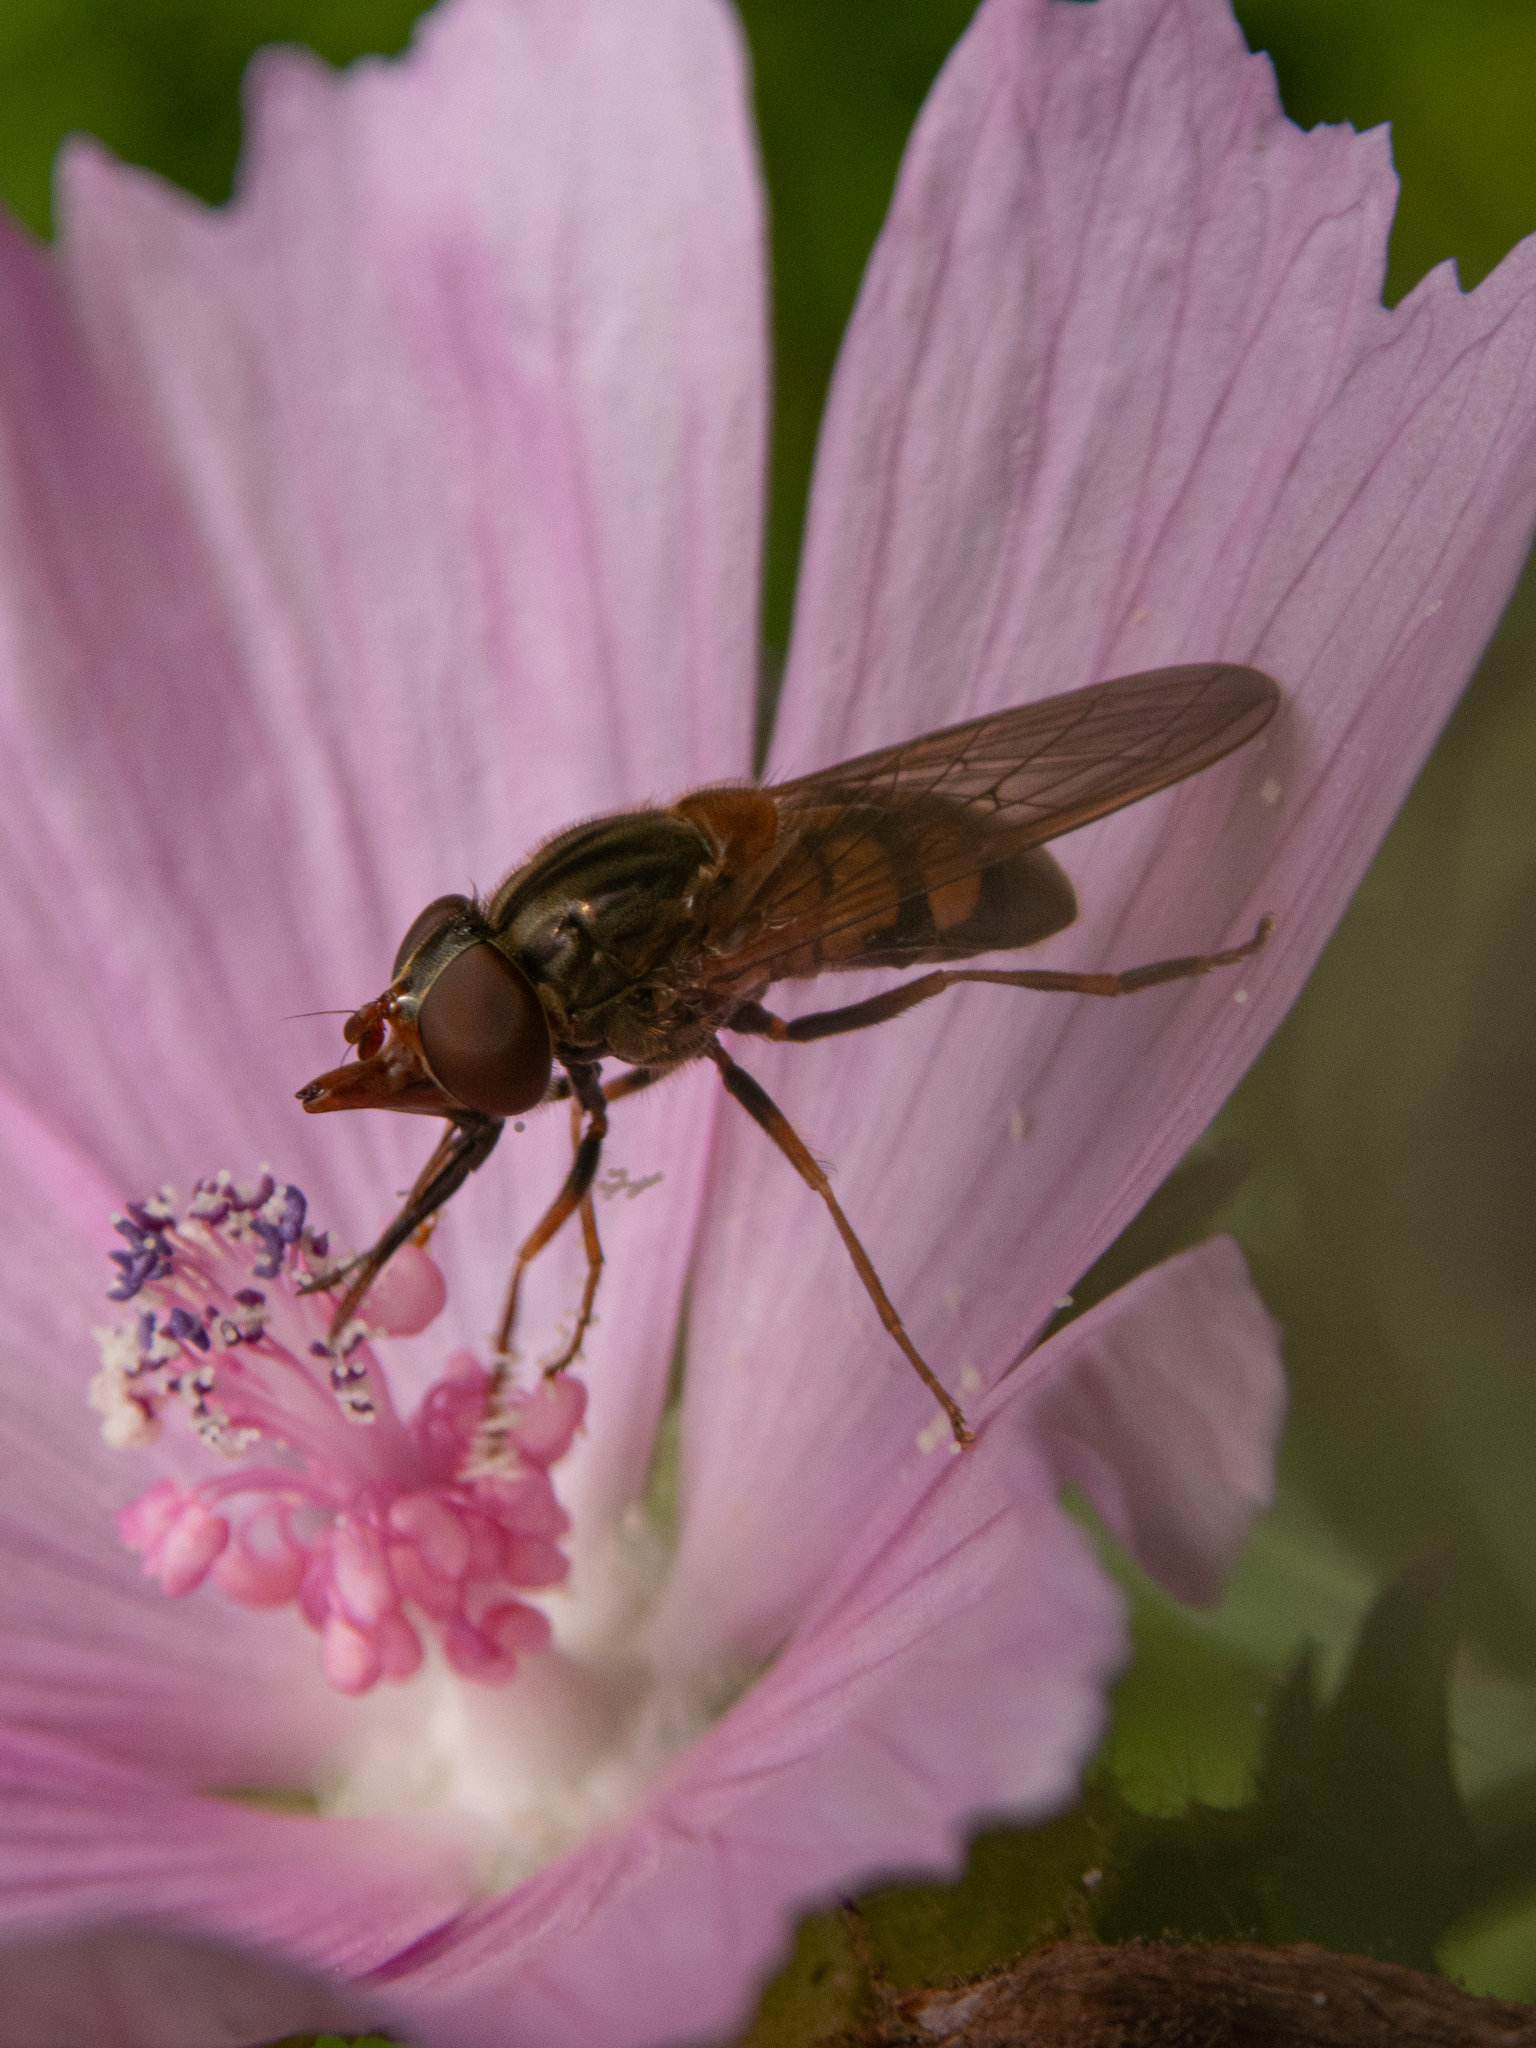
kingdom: Animalia
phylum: Arthropoda
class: Insecta
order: Diptera
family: Syrphidae
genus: Rhingia
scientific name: Rhingia nasica
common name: American snout fly
